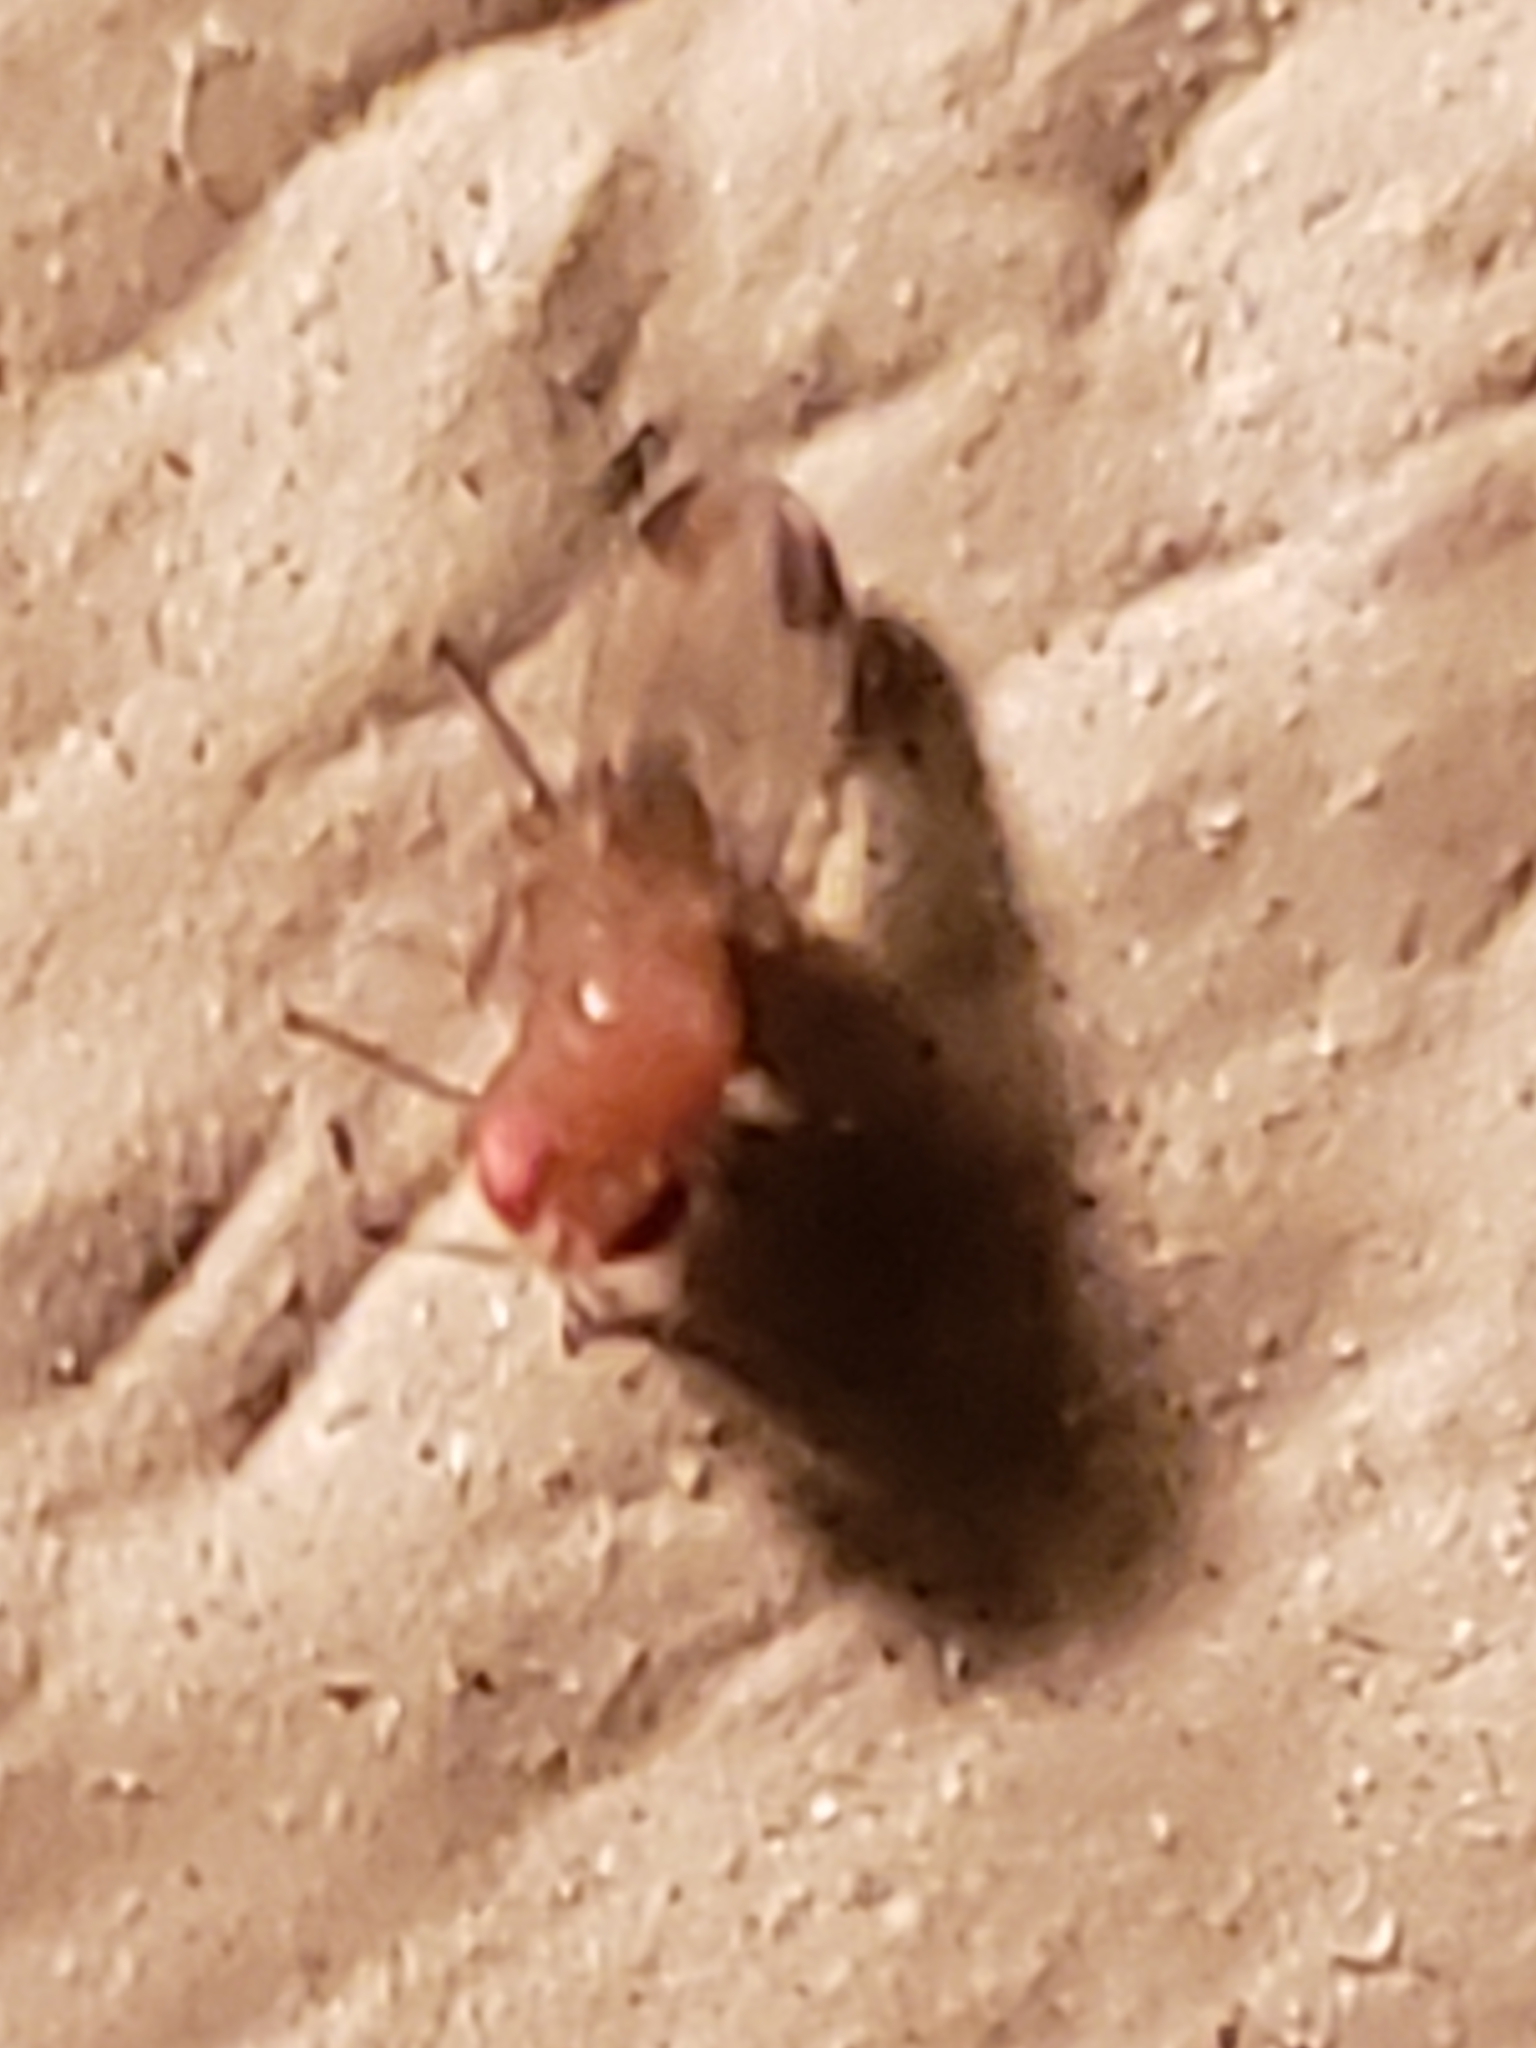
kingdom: Animalia
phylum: Arthropoda
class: Insecta
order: Diptera
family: Drosophilidae
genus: Drosophila
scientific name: Drosophila suzukii
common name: Spotted-wing drosophila
